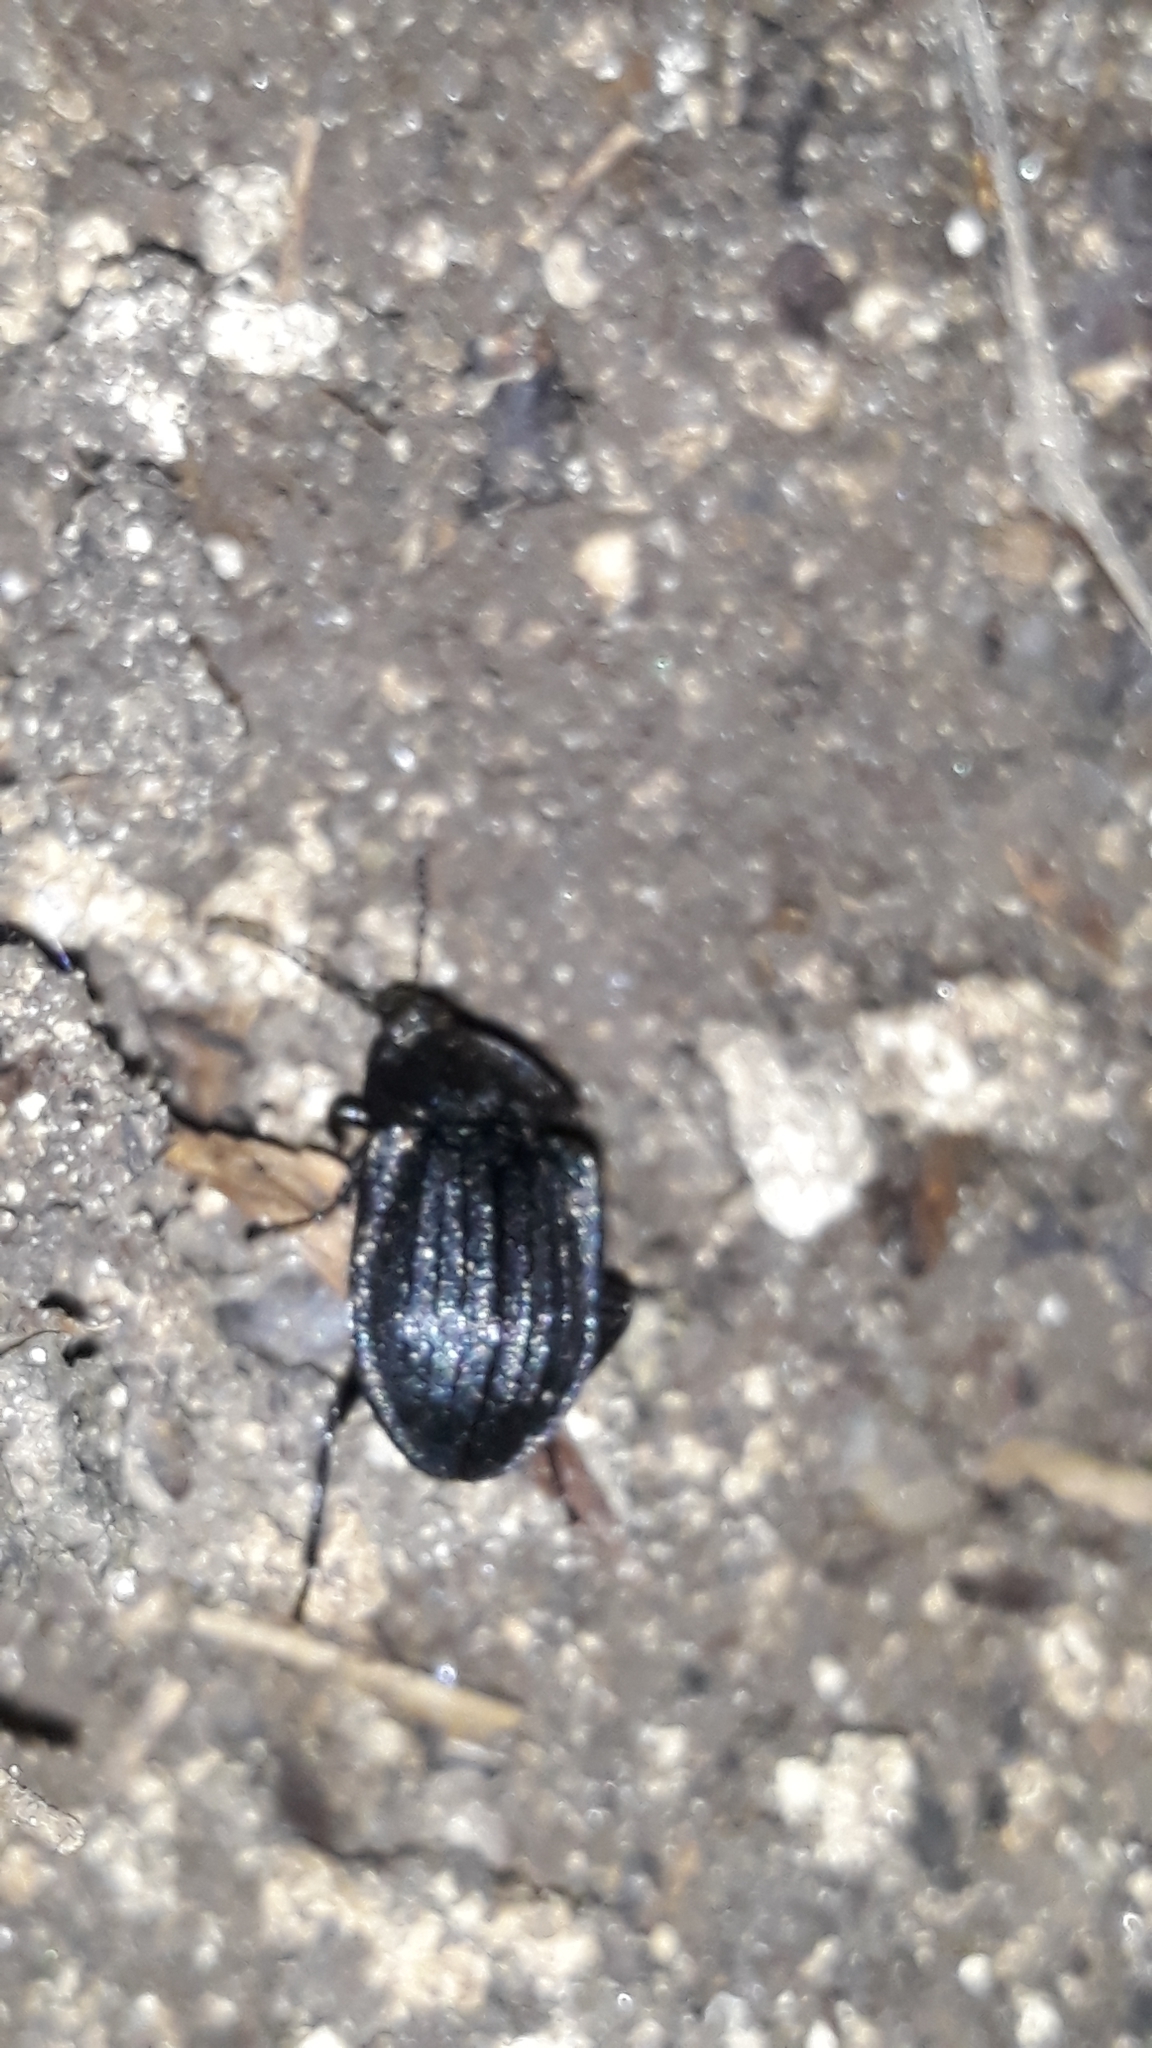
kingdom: Animalia
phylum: Arthropoda
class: Insecta
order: Coleoptera
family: Staphylinidae
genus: Silpha
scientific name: Silpha atrata
